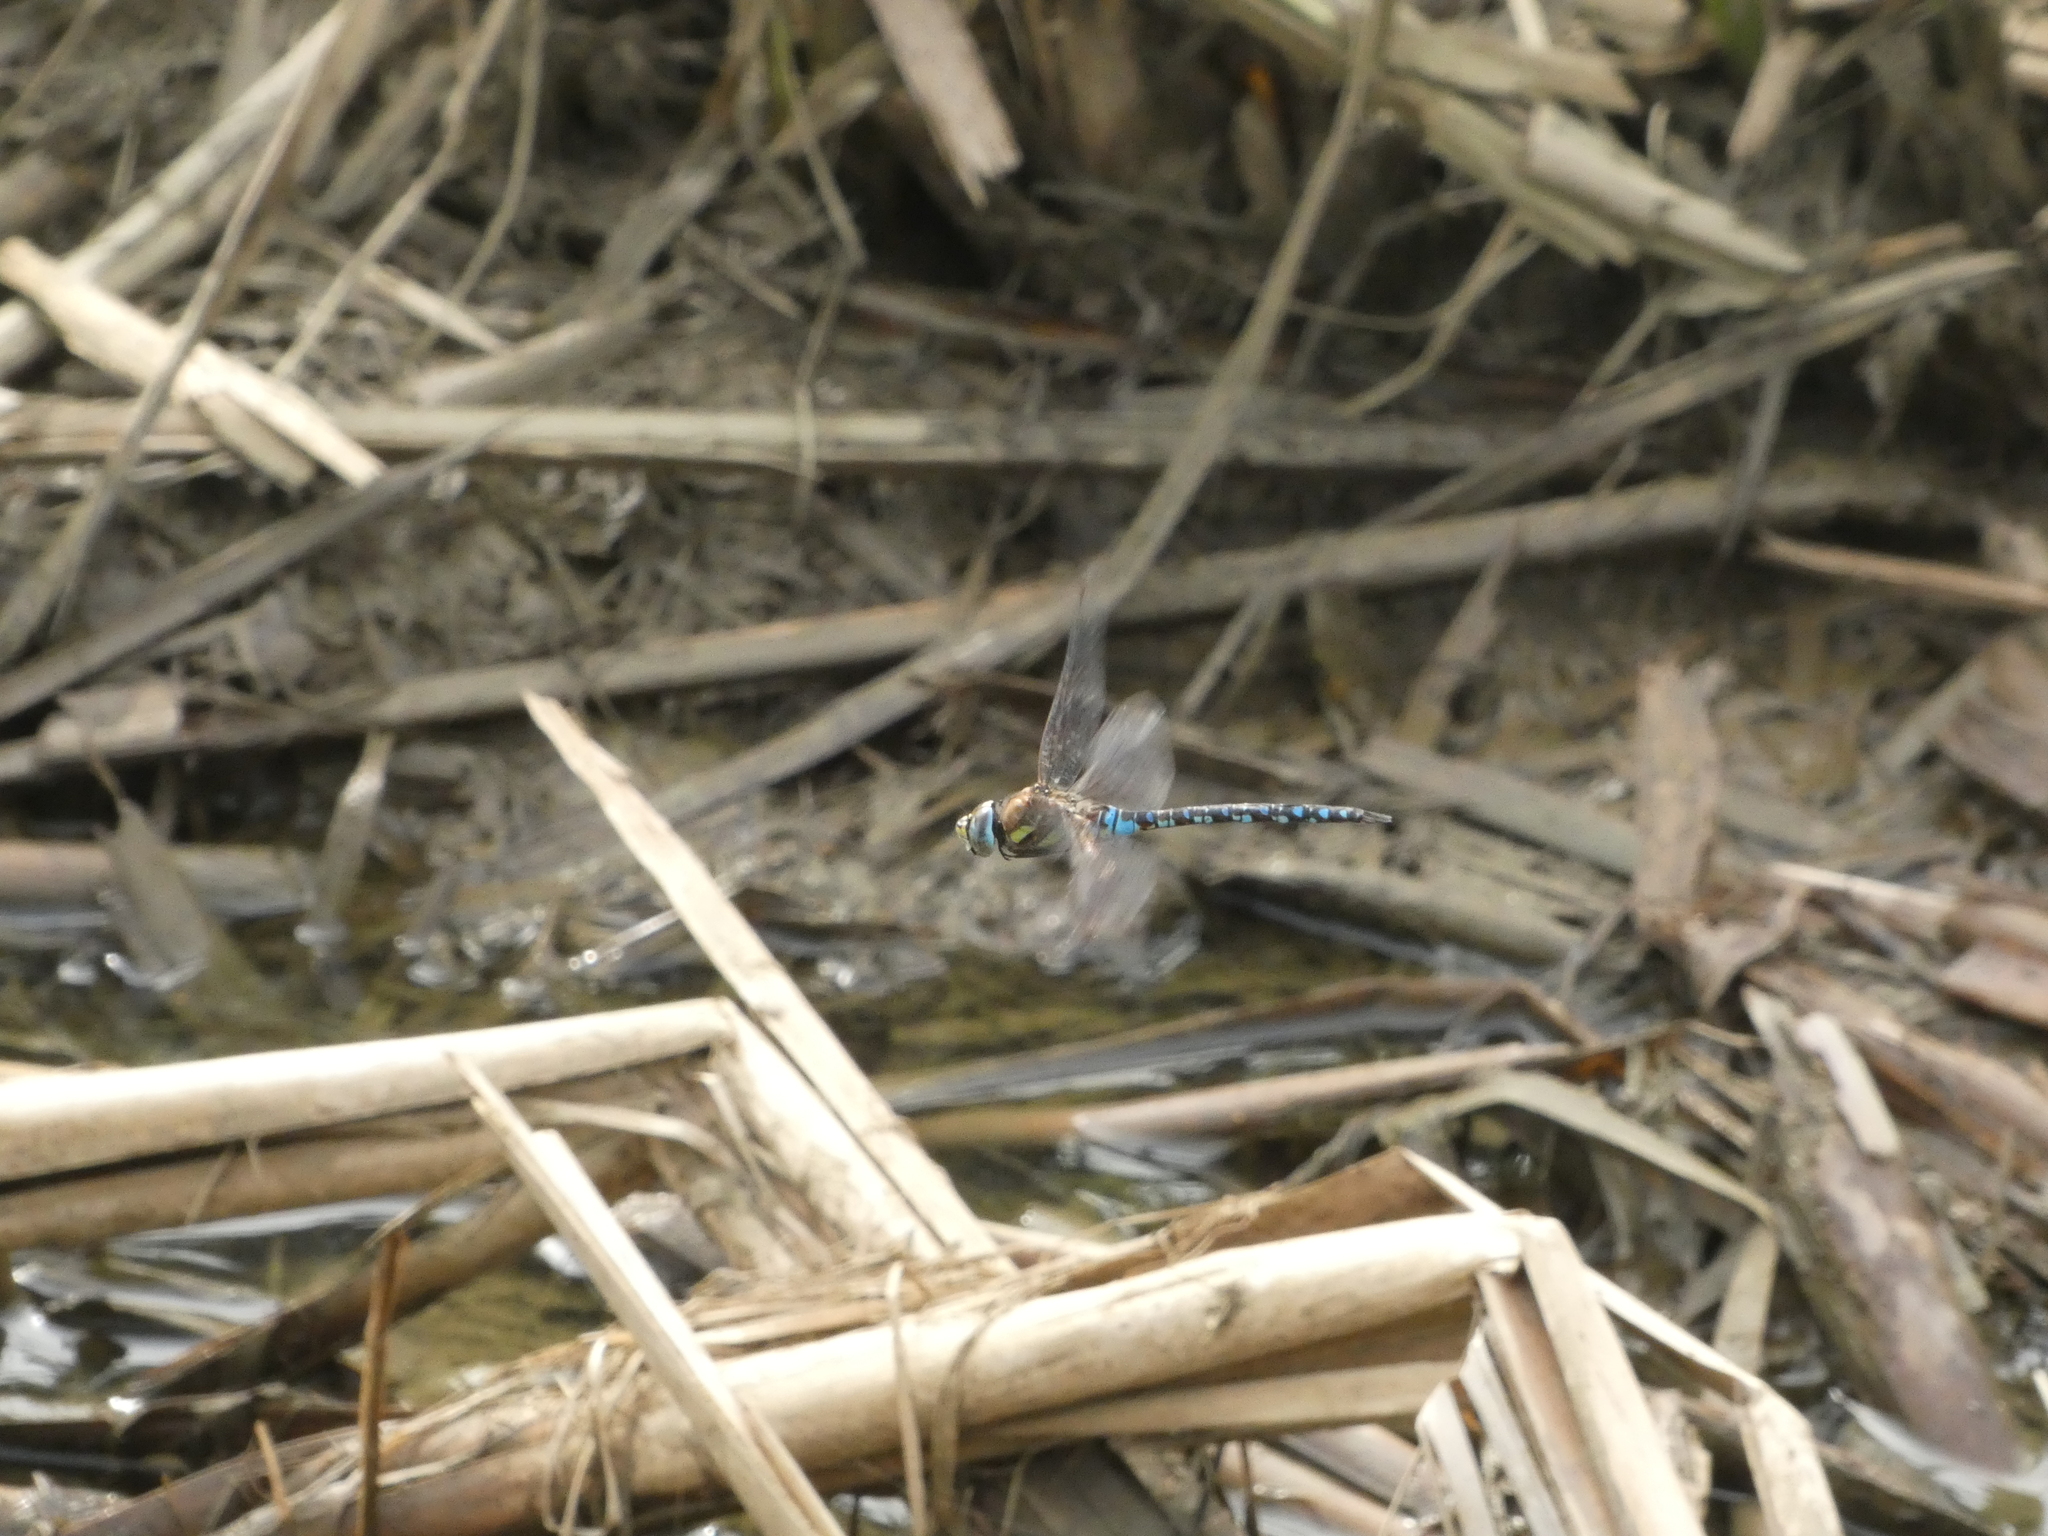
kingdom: Animalia
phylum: Arthropoda
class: Insecta
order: Odonata
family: Aeshnidae
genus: Aeshna
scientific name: Aeshna mixta
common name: Migrant hawker
